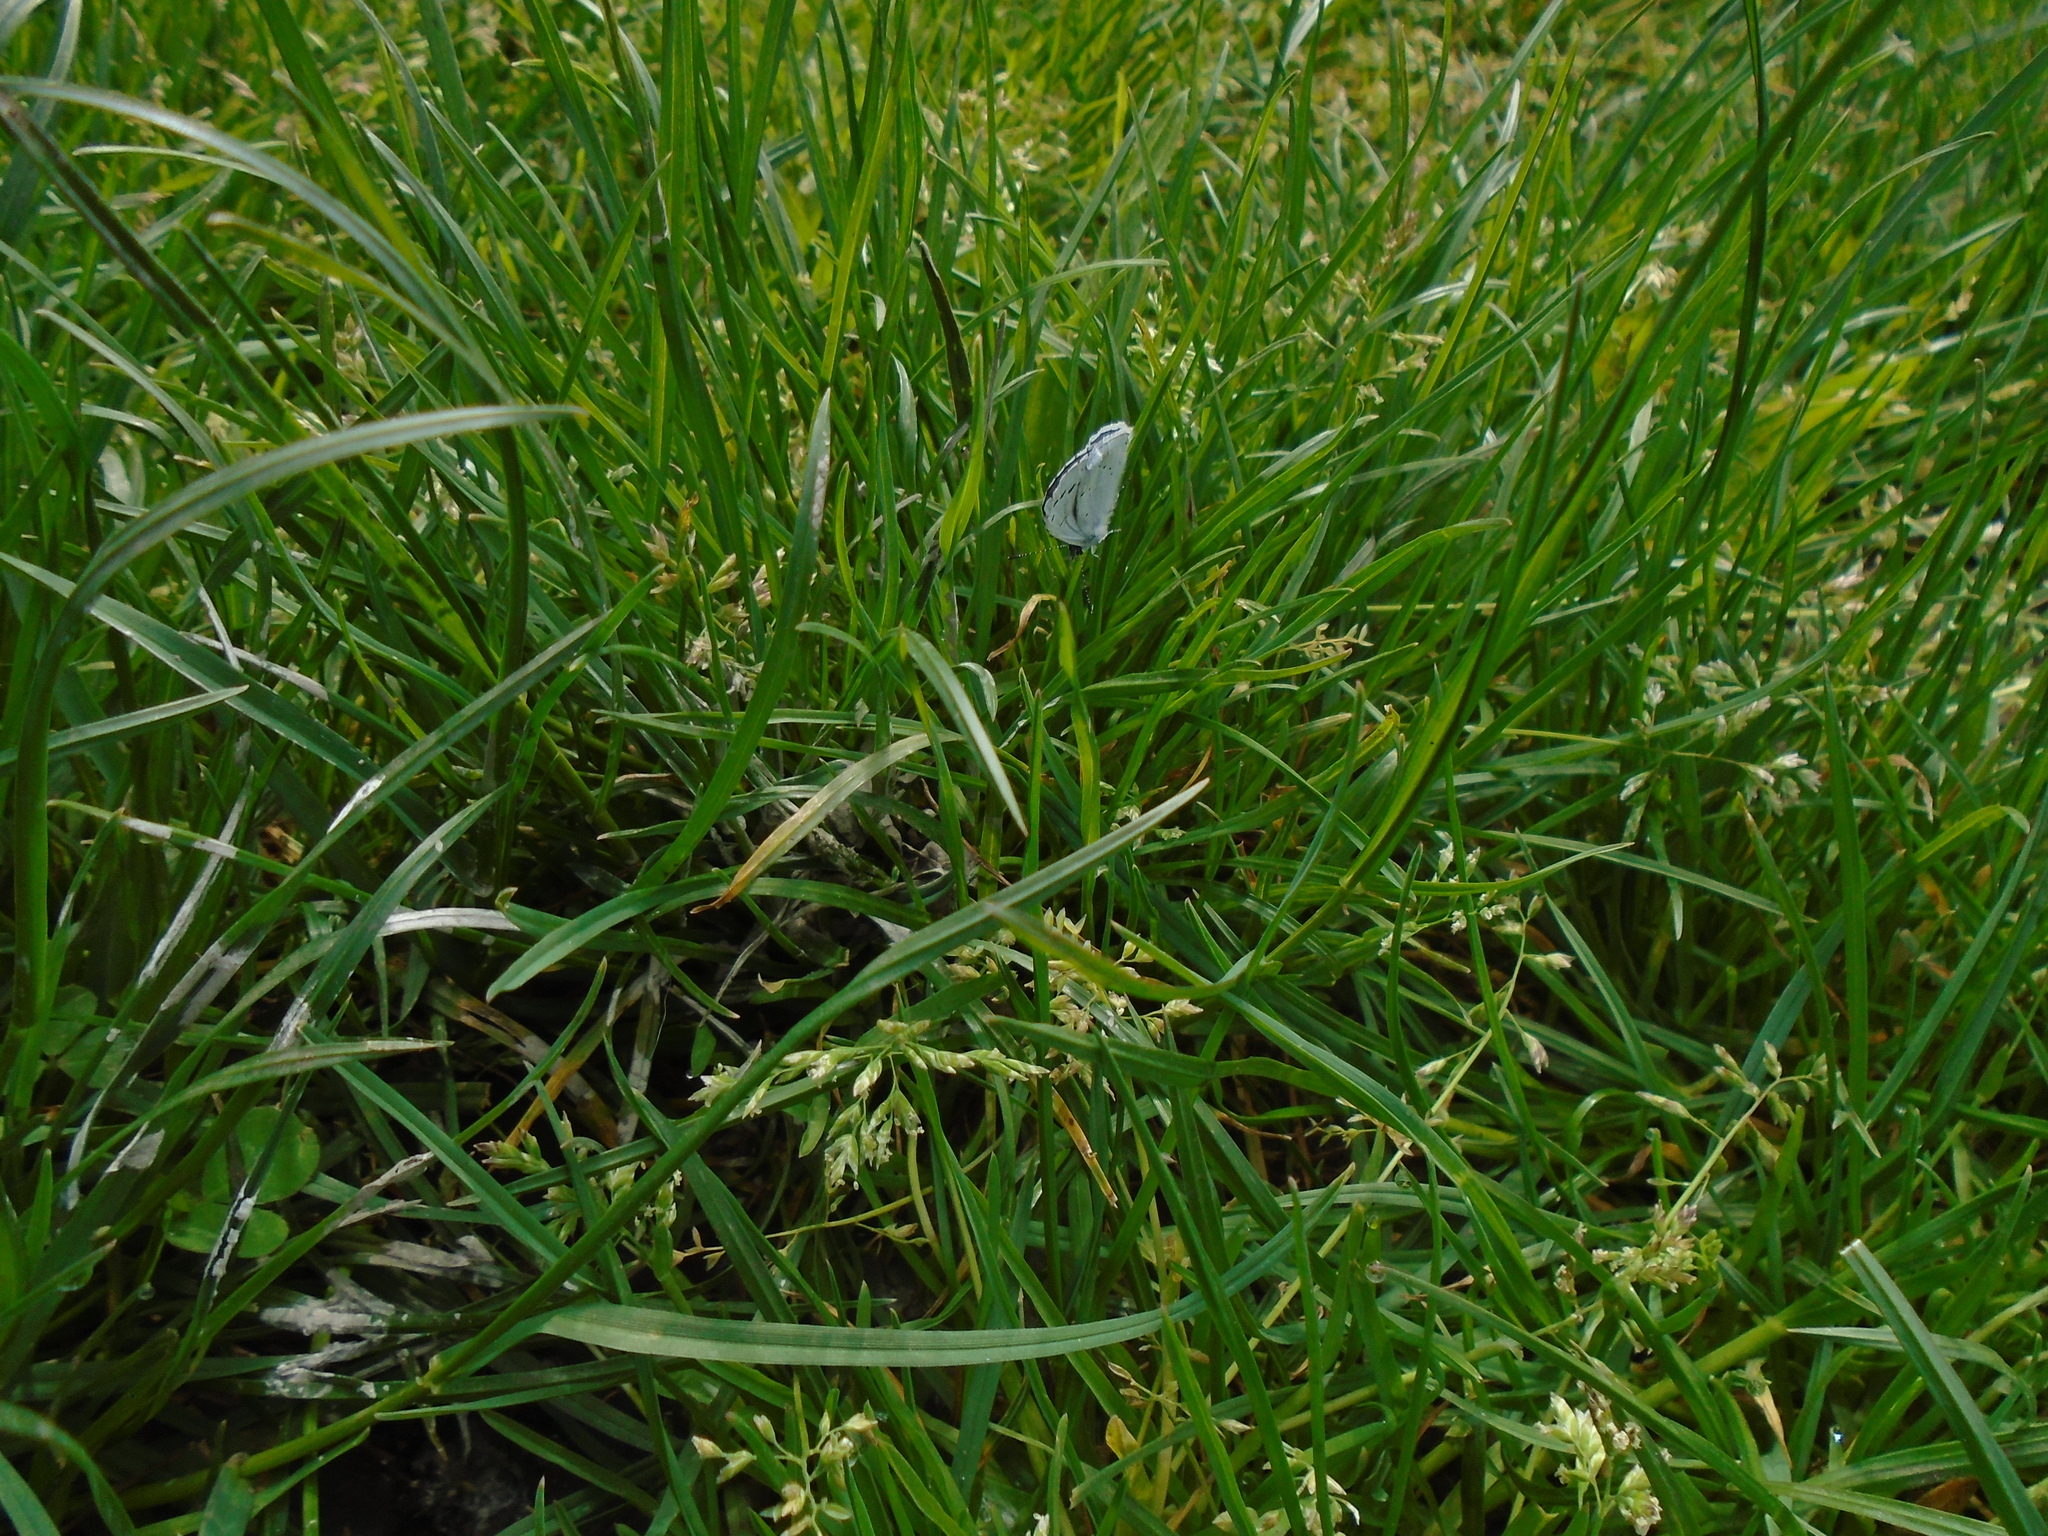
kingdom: Animalia
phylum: Arthropoda
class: Insecta
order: Lepidoptera
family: Lycaenidae
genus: Celastrina
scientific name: Celastrina argiolus
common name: Holly blue
